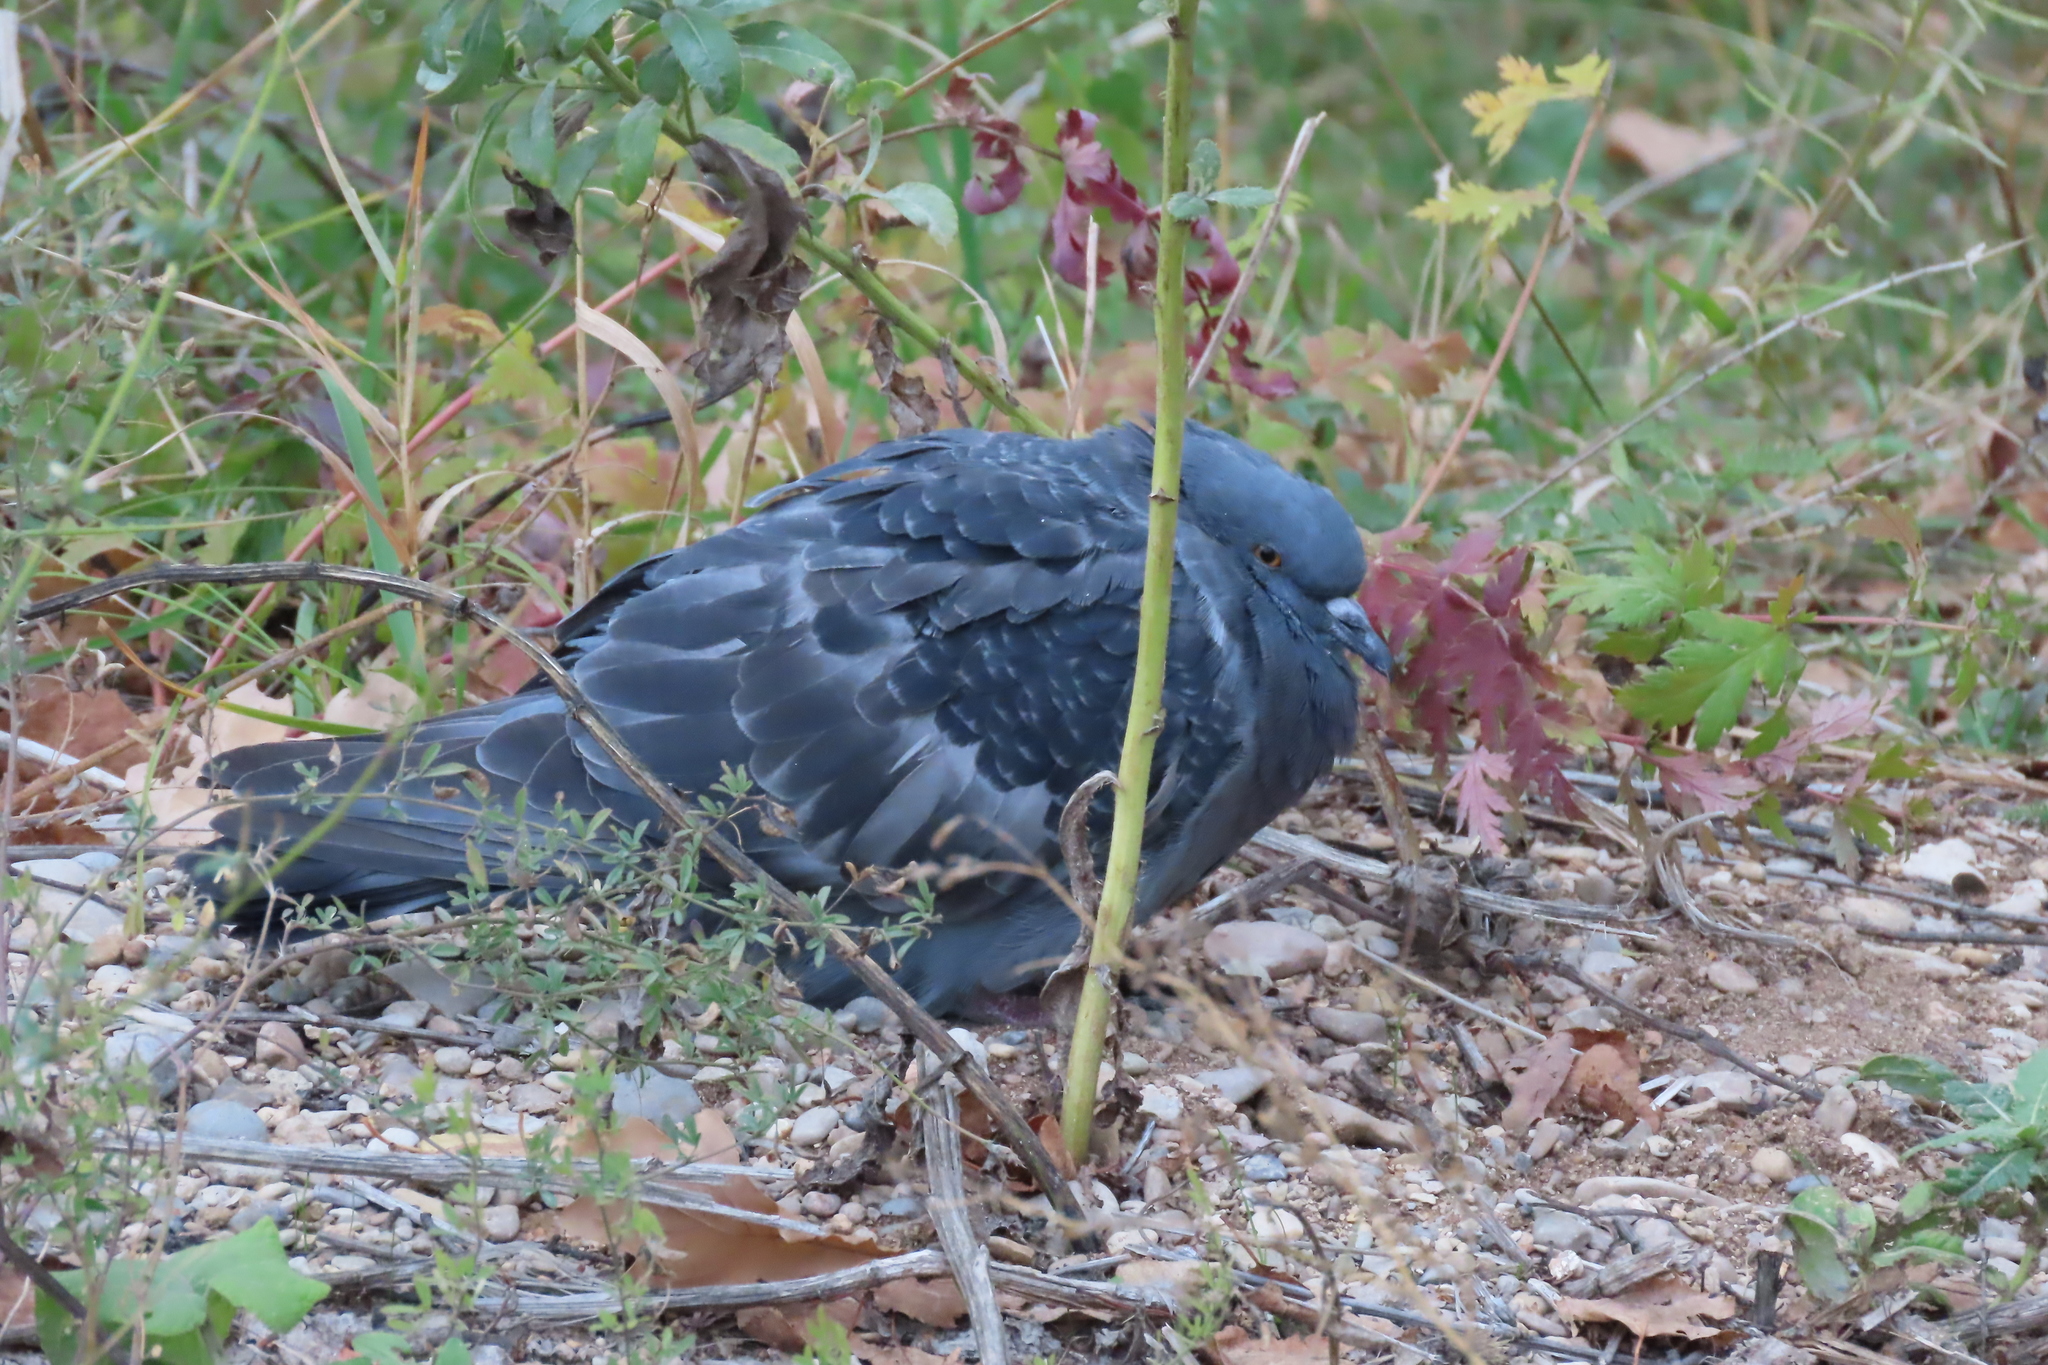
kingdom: Animalia
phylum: Chordata
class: Aves
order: Columbiformes
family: Columbidae
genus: Columba
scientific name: Columba livia
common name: Rock pigeon
